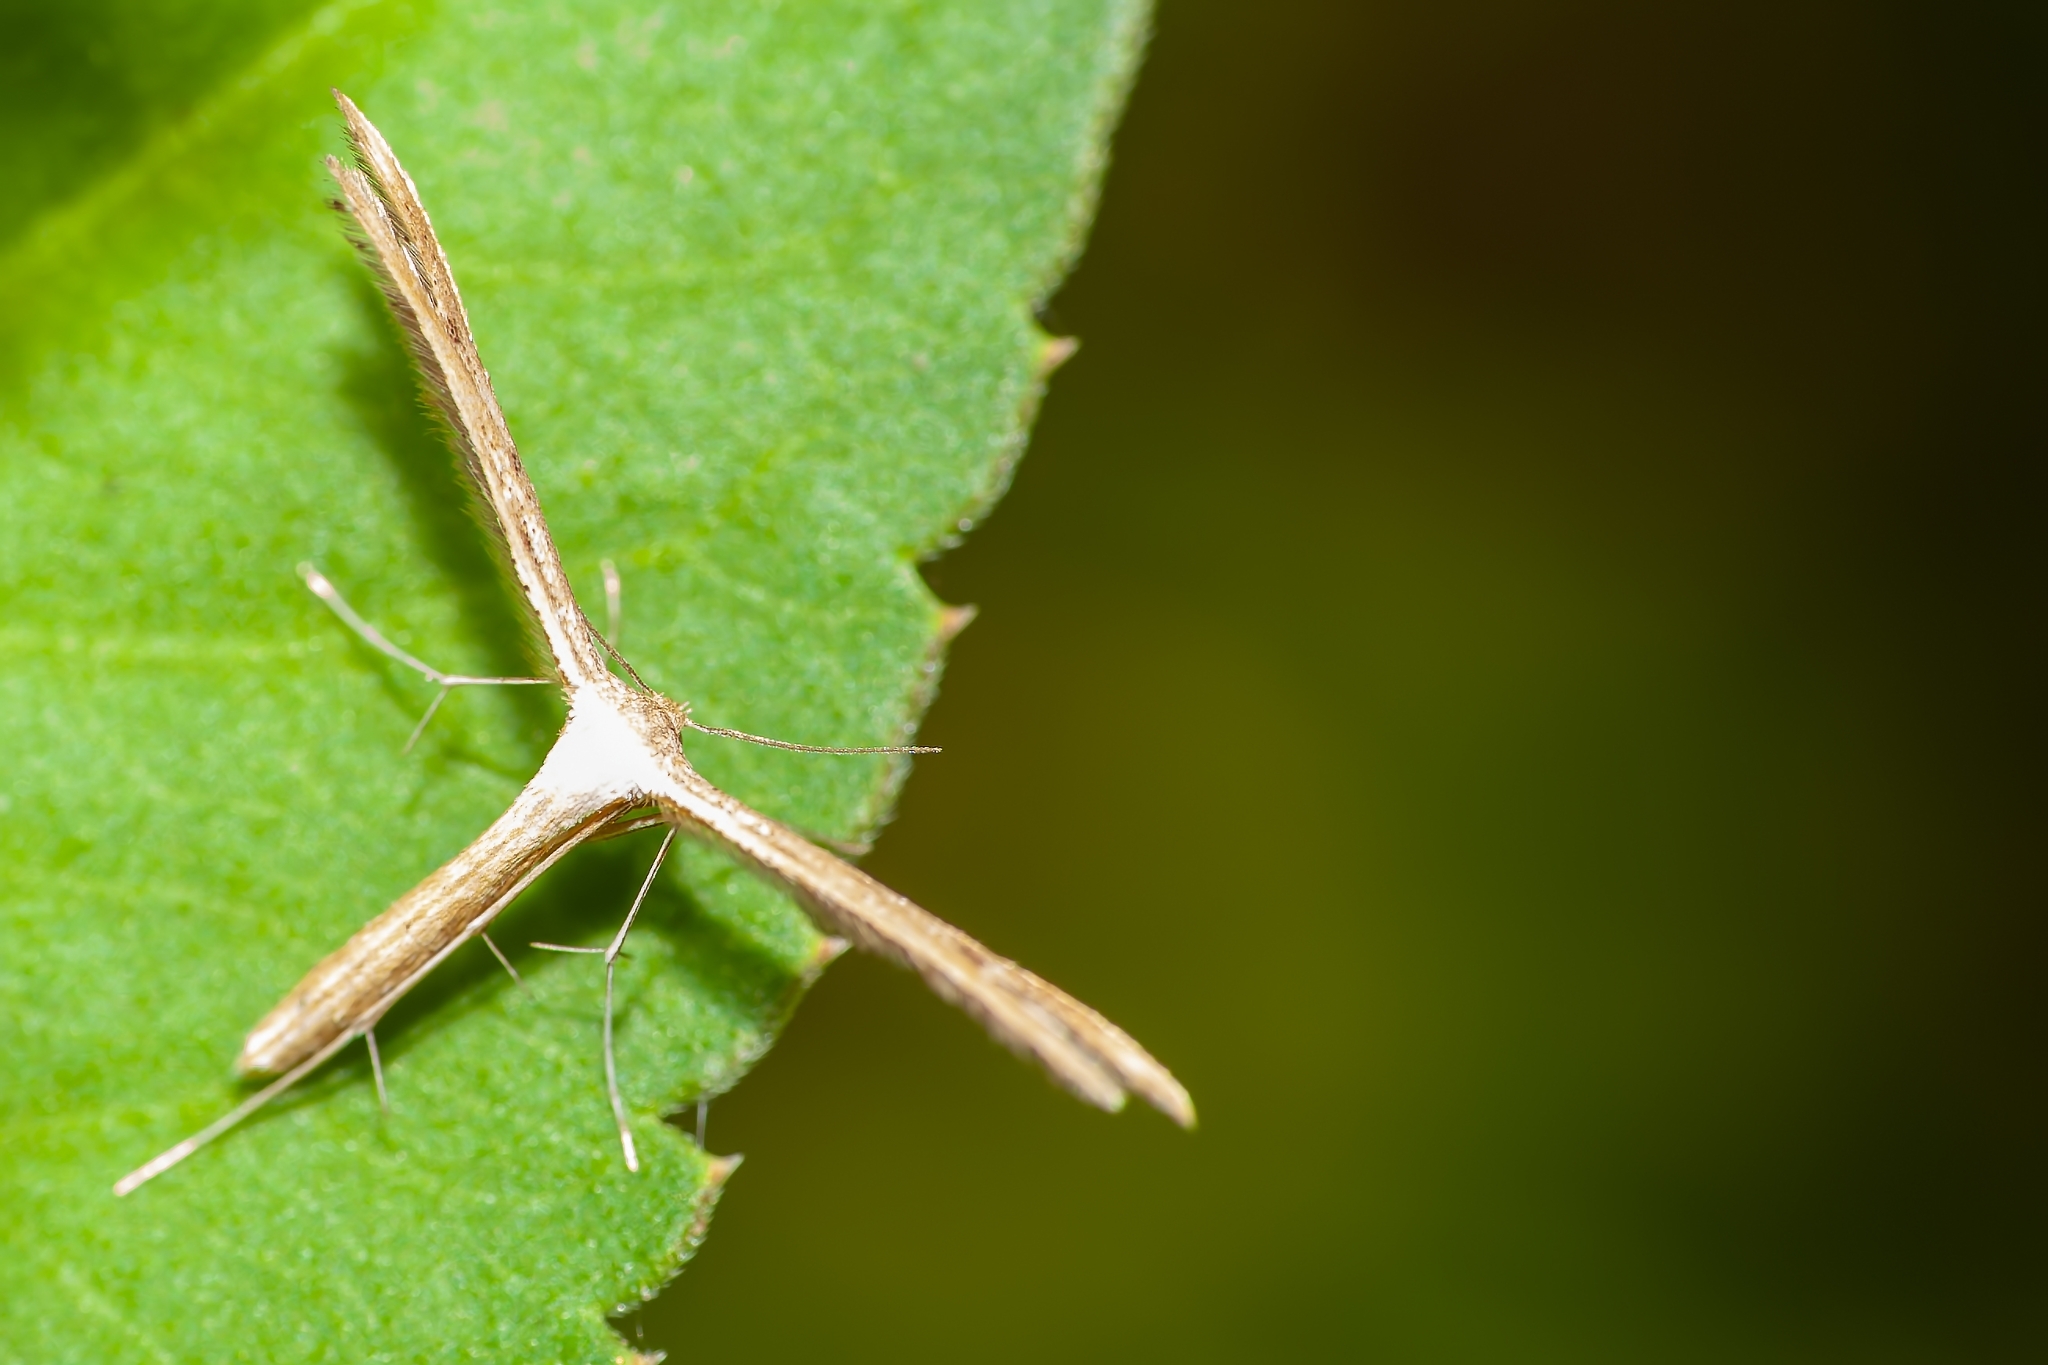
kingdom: Animalia
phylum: Arthropoda
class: Insecta
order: Lepidoptera
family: Pterophoridae
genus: Exelastis
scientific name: Exelastis pumilio
